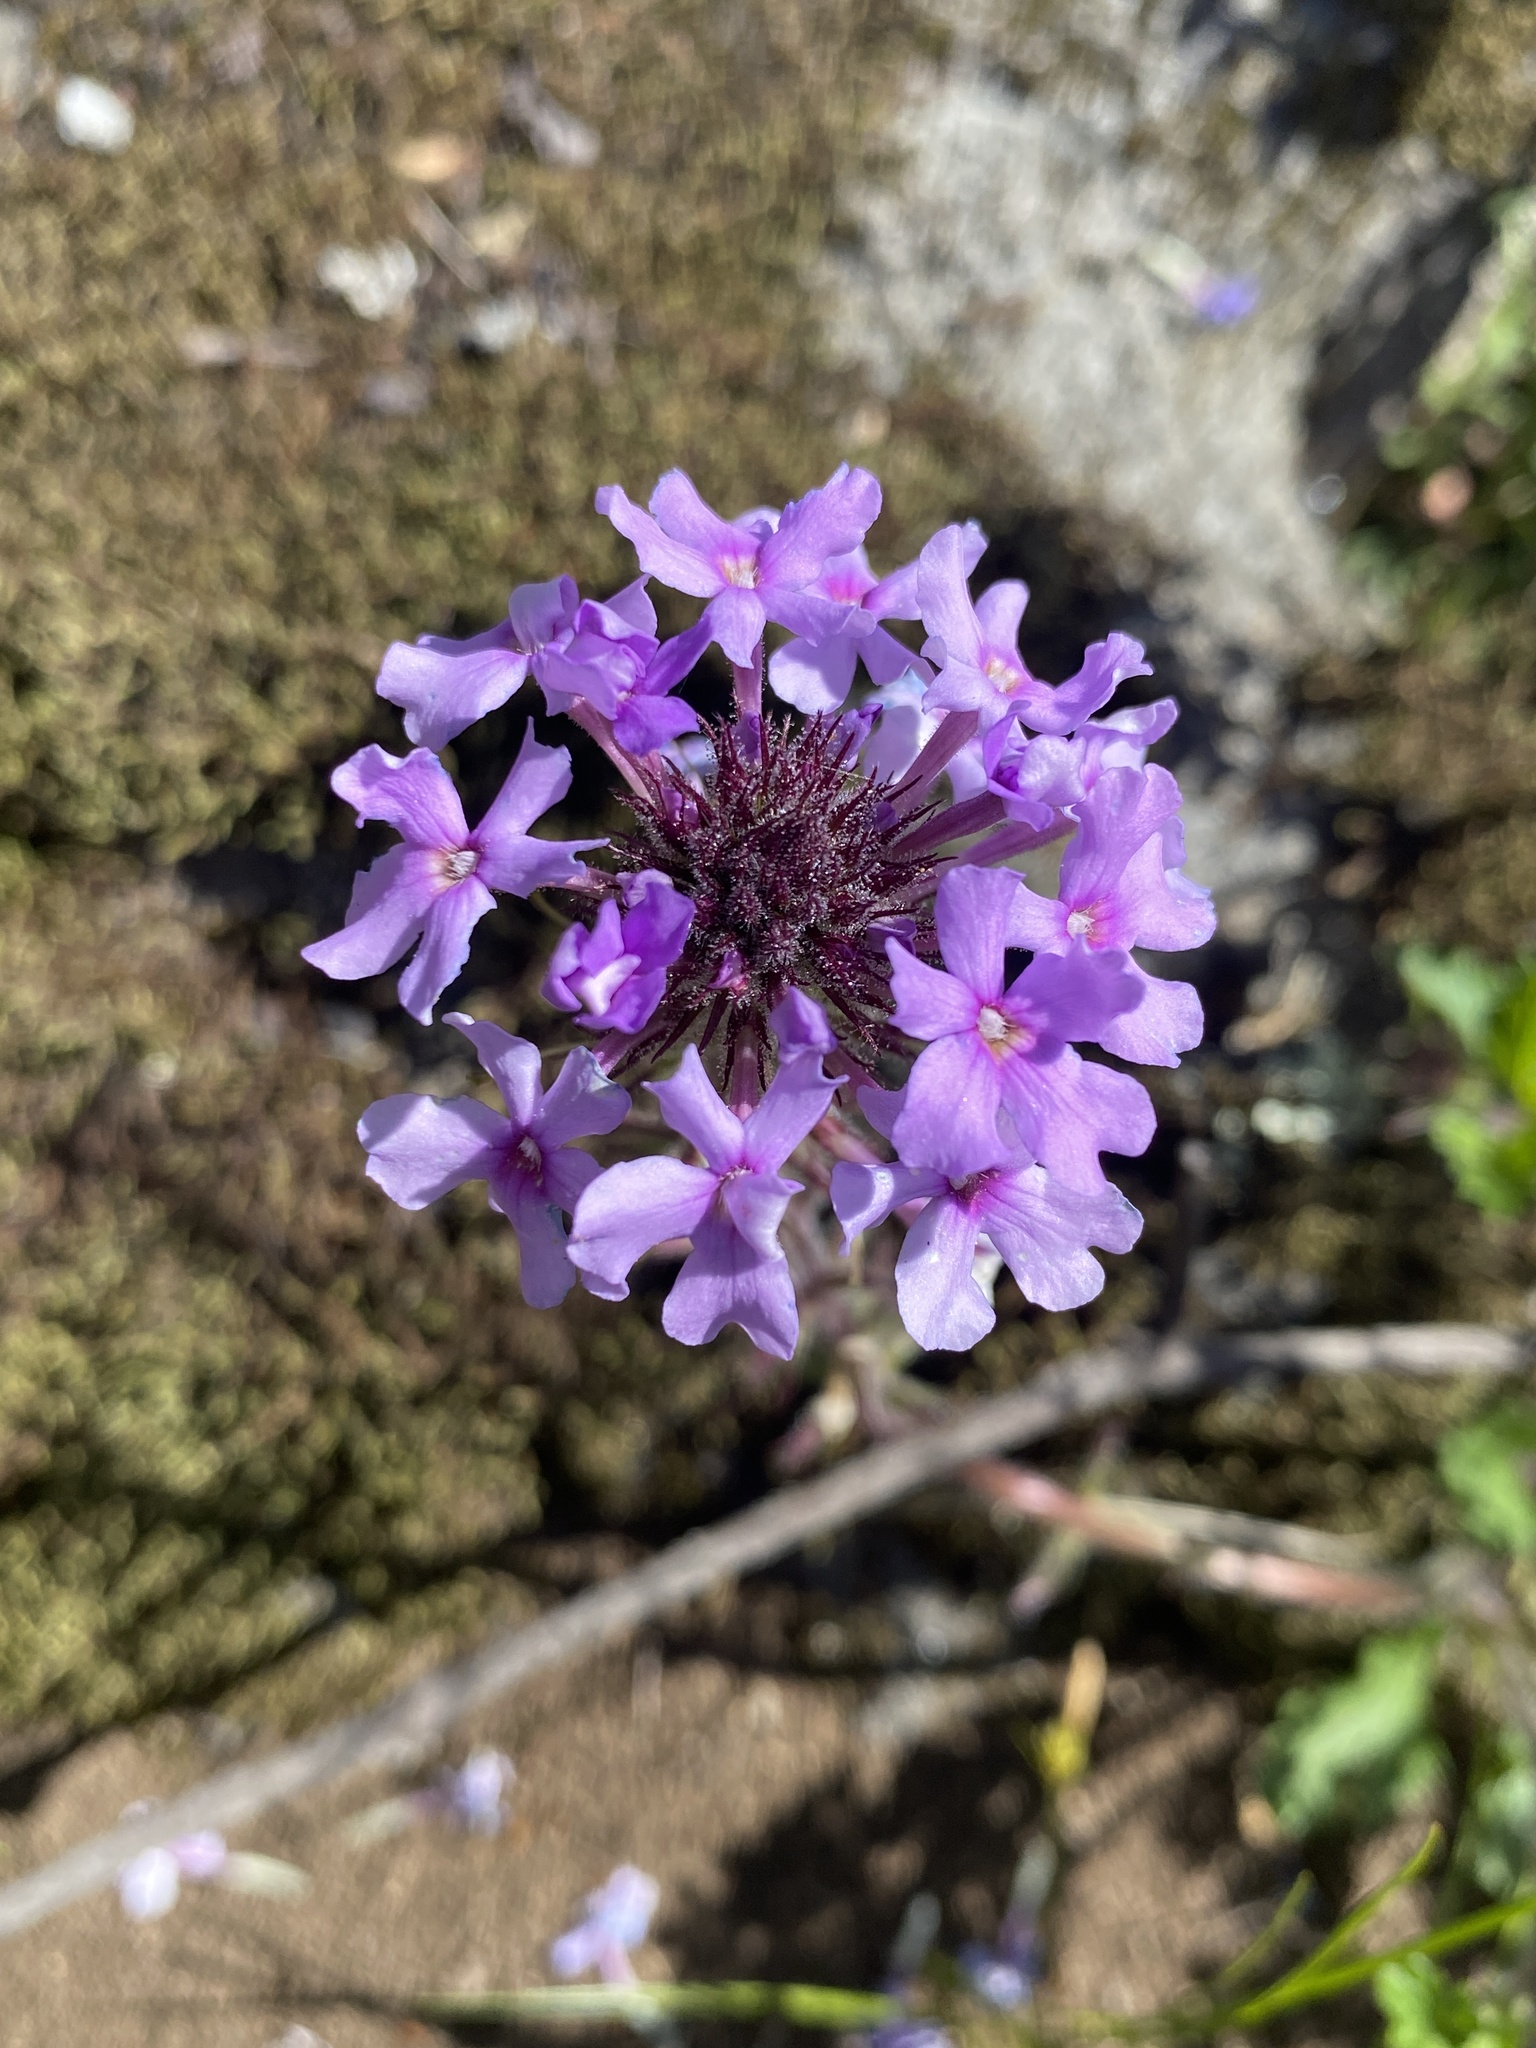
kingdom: Plantae
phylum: Tracheophyta
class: Magnoliopsida
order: Lamiales
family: Verbenaceae
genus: Verbena
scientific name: Verbena canadensis
